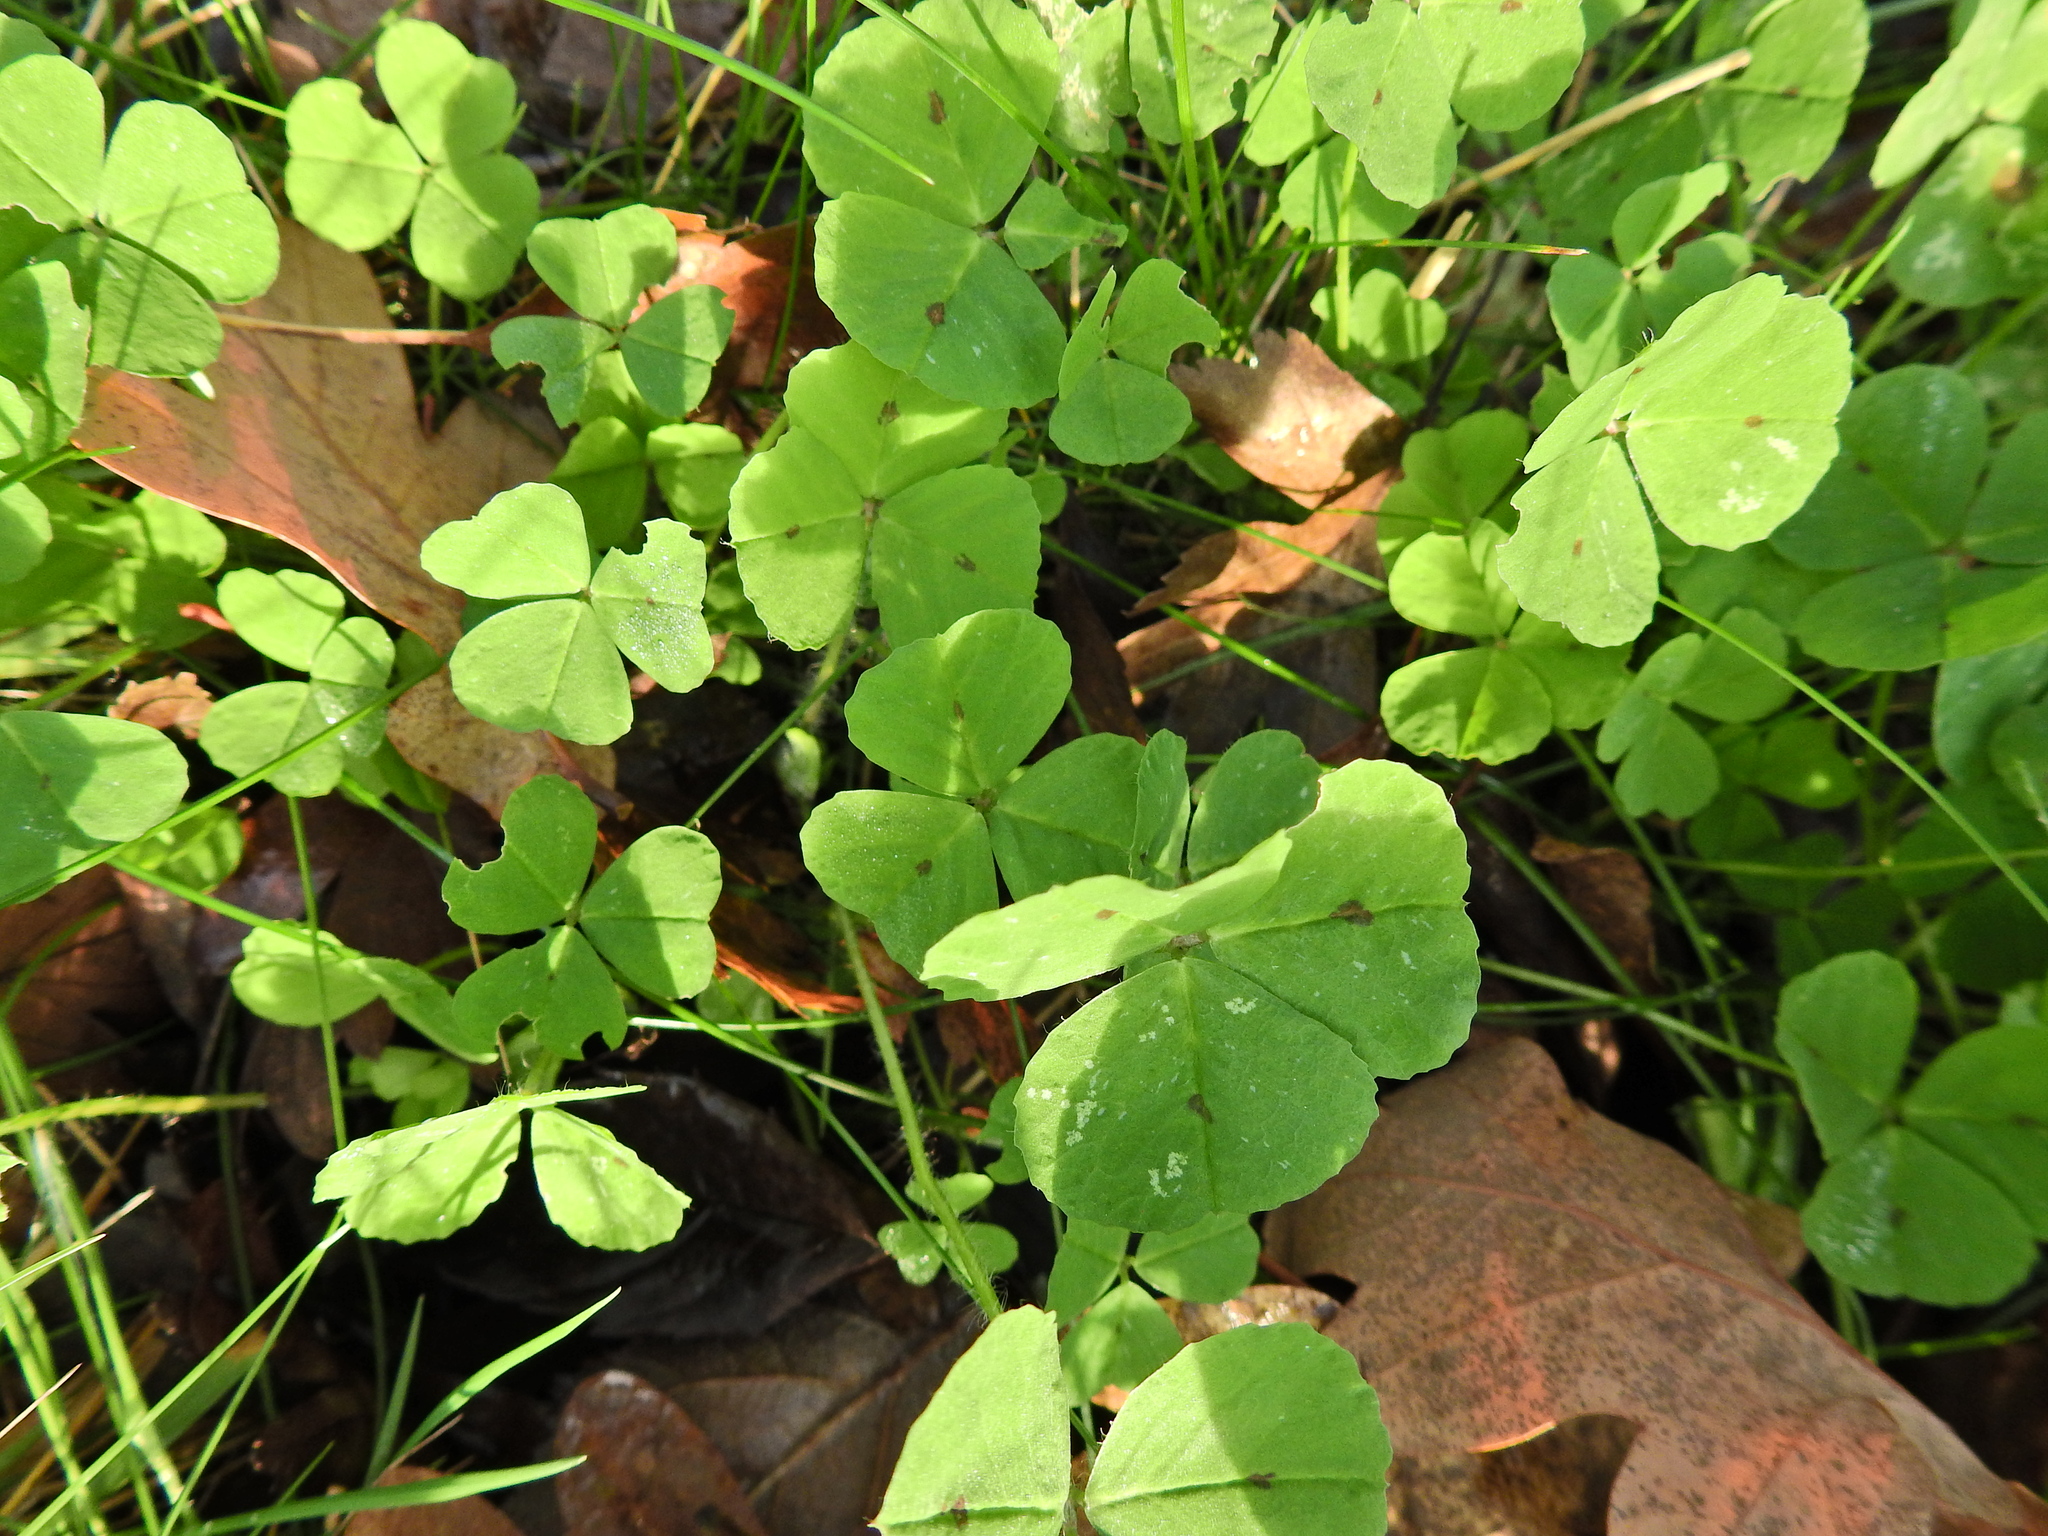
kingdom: Plantae
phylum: Tracheophyta
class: Magnoliopsida
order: Fabales
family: Fabaceae
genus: Medicago
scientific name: Medicago arabica
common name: Spotted medick
